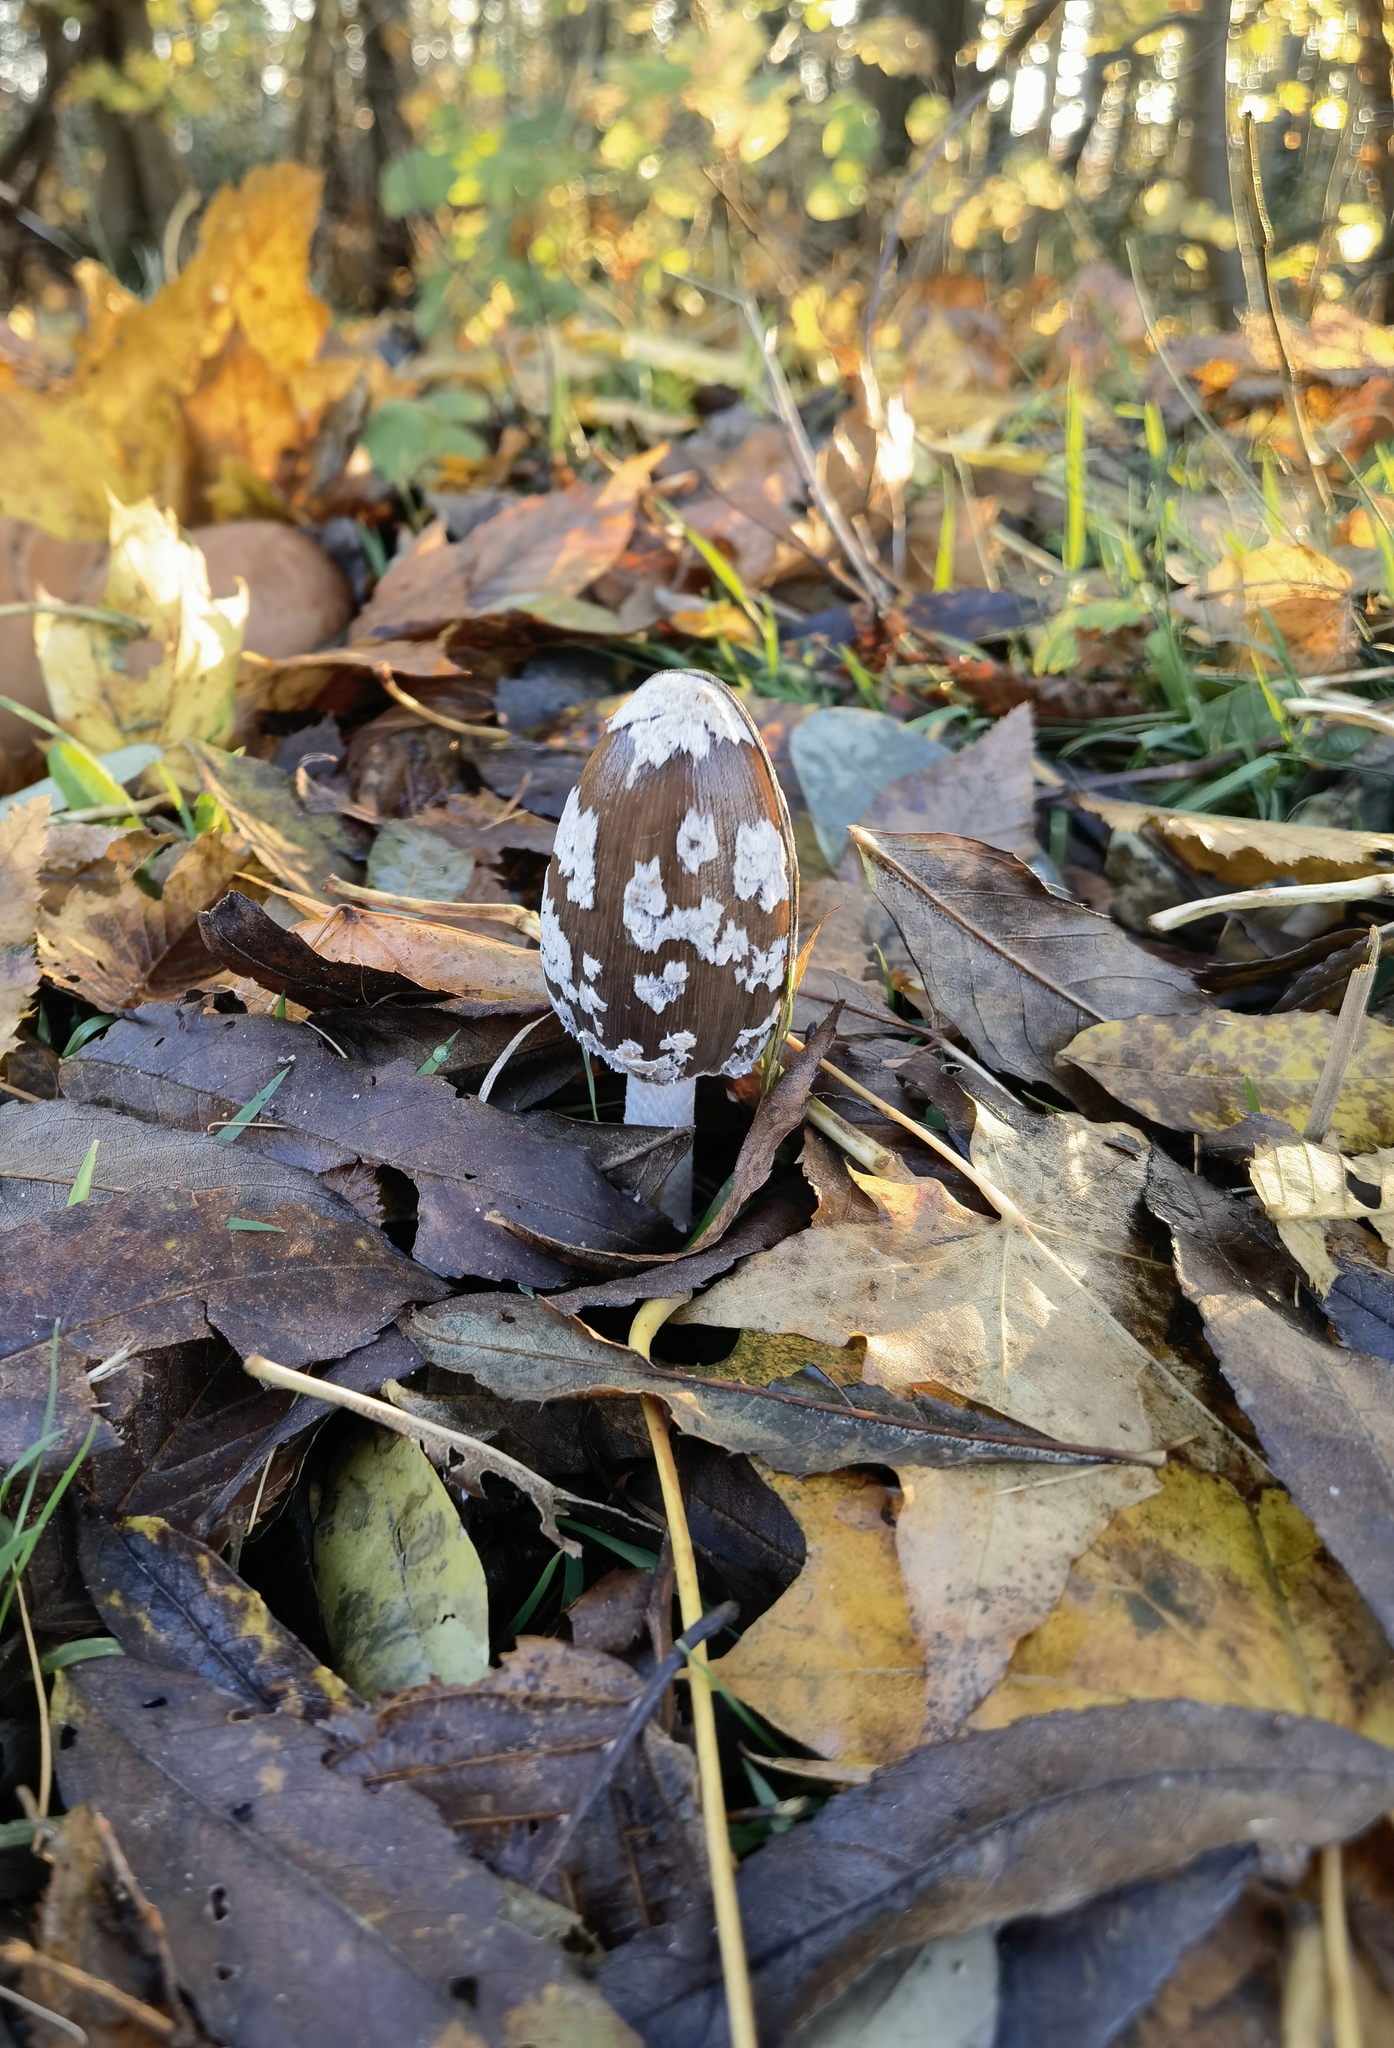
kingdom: Fungi
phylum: Basidiomycota
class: Agaricomycetes
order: Agaricales
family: Psathyrellaceae
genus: Coprinopsis
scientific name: Coprinopsis picacea
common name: Magpie inkcap
